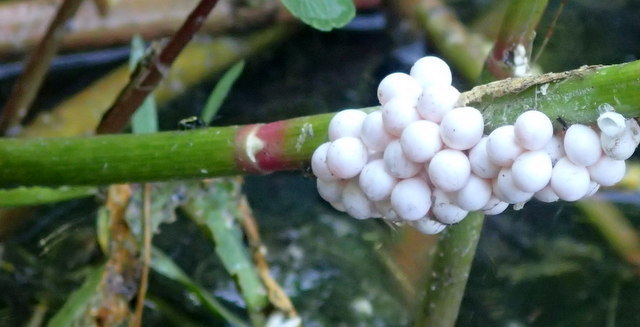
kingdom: Animalia
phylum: Mollusca
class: Gastropoda
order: Architaenioglossa
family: Ampullariidae
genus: Pomacea
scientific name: Pomacea paludosa
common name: Florida applesnail
